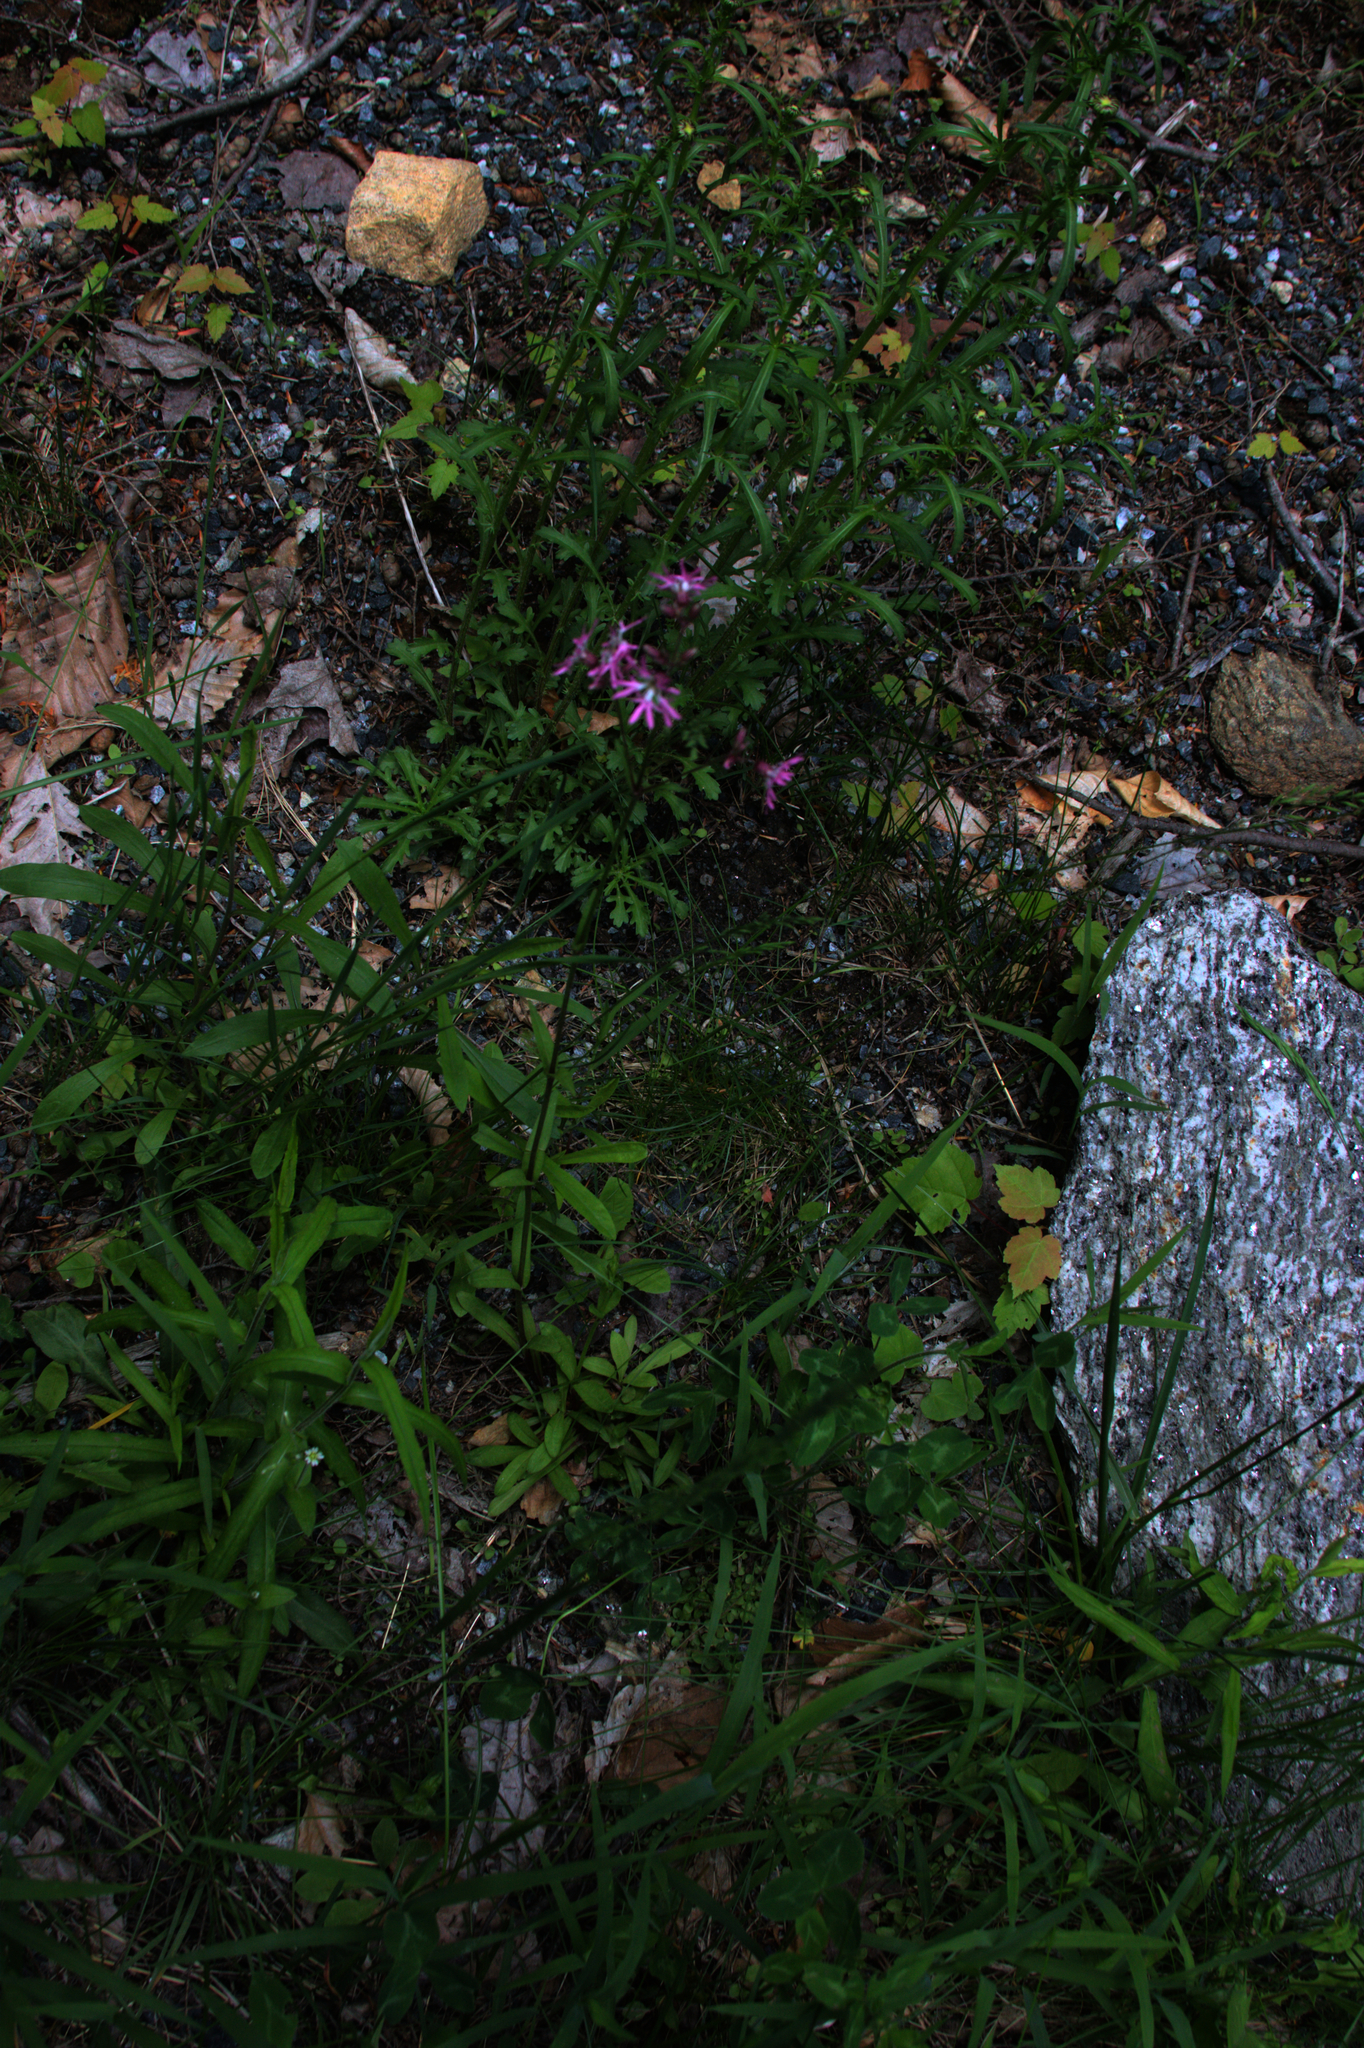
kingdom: Plantae
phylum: Tracheophyta
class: Magnoliopsida
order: Caryophyllales
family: Caryophyllaceae
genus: Silene
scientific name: Silene flos-cuculi
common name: Ragged-robin
